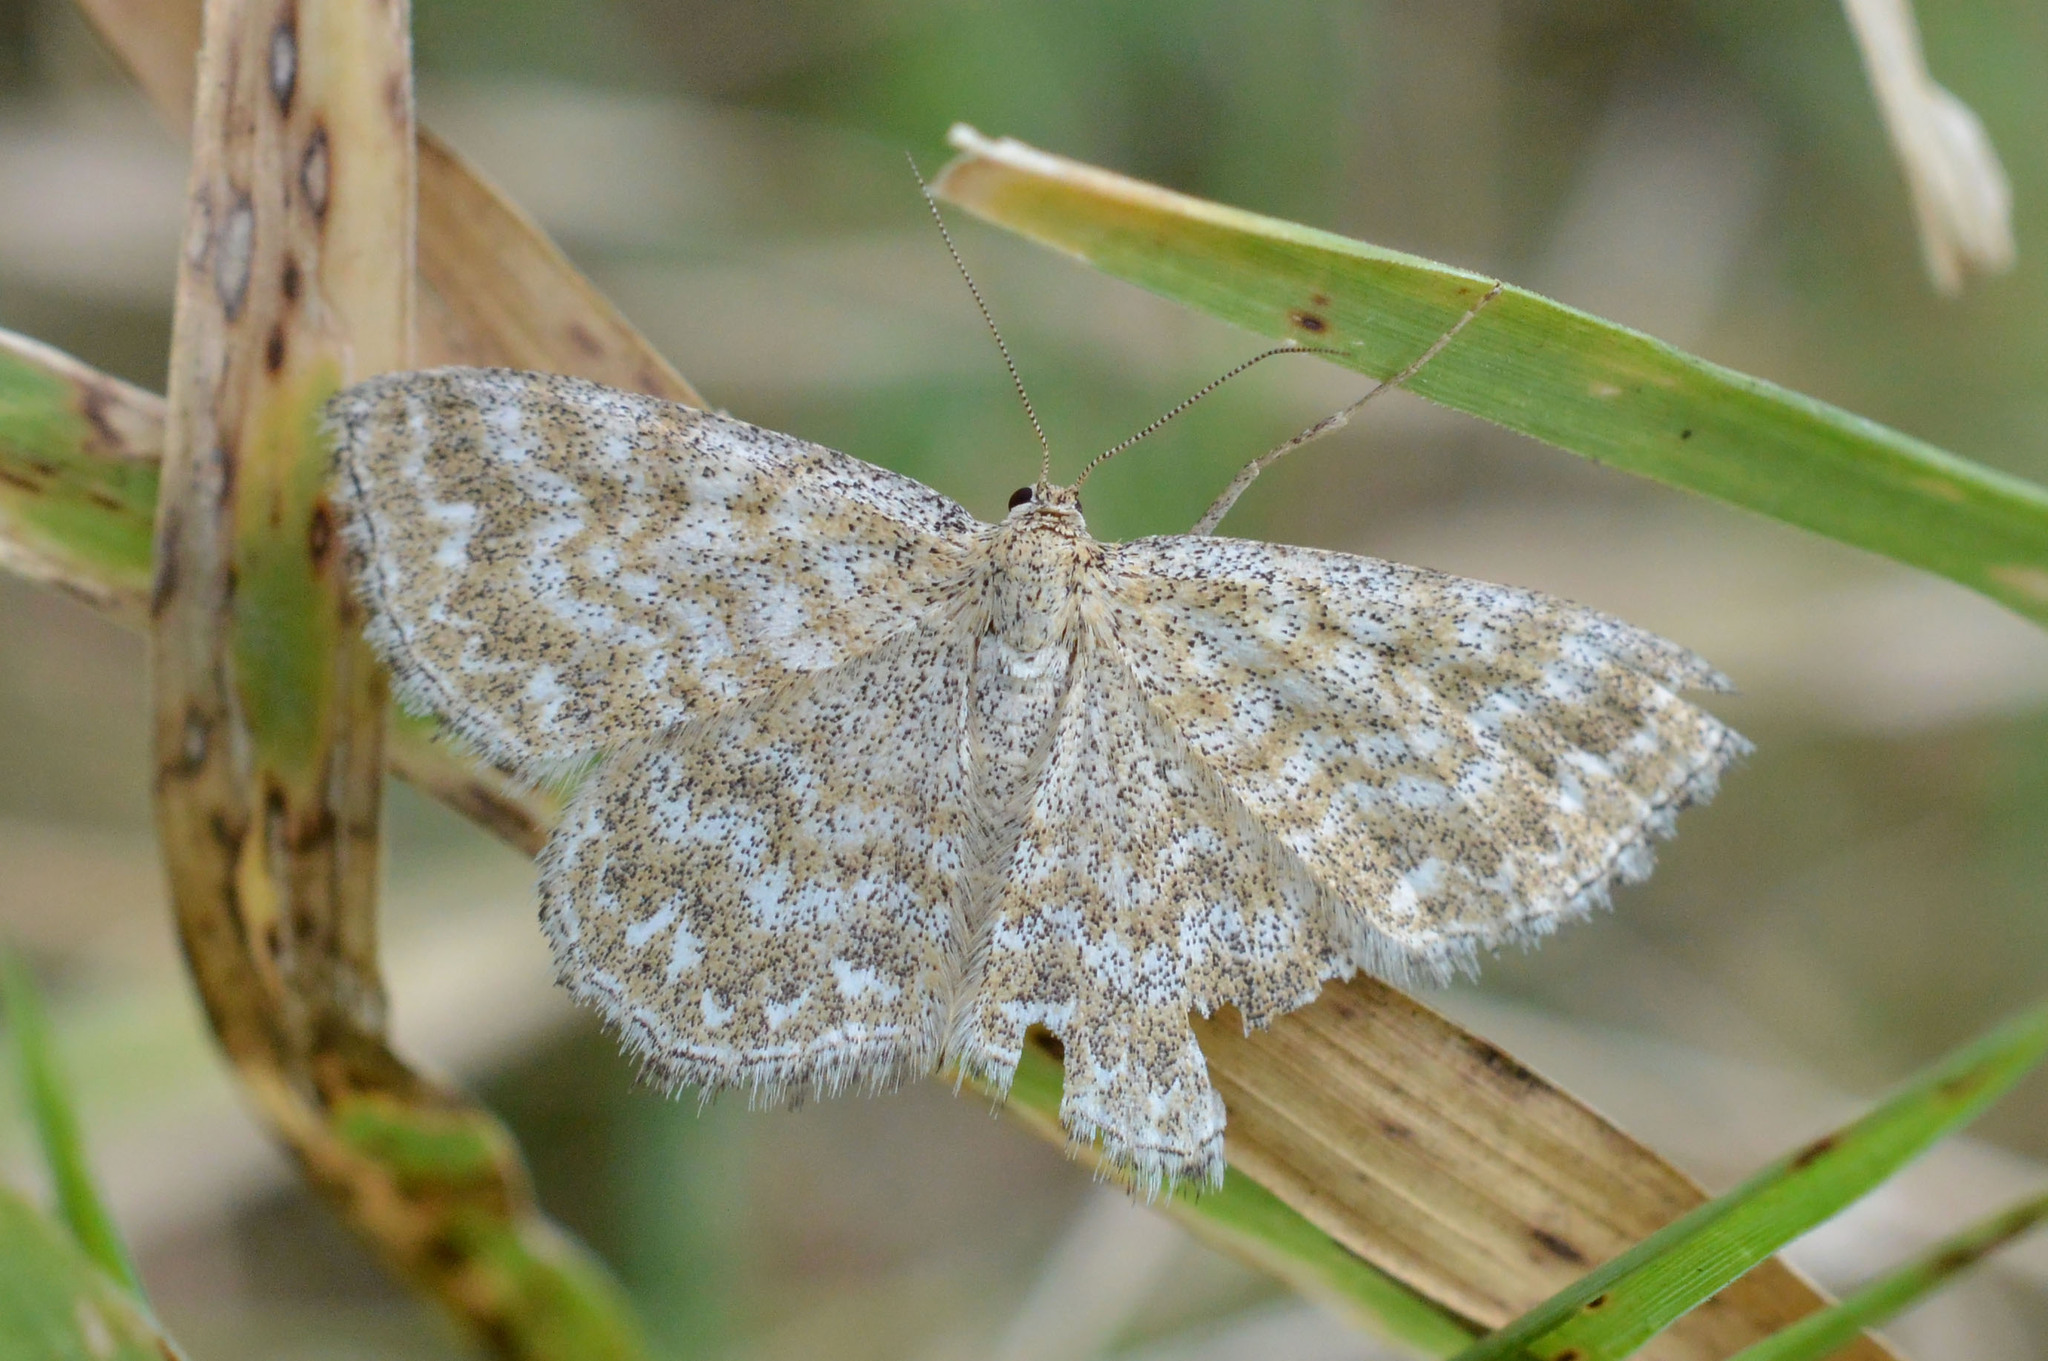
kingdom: Animalia
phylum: Arthropoda
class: Insecta
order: Lepidoptera
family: Geometridae
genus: Scopula
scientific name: Scopula immorata
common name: Lewes wave
